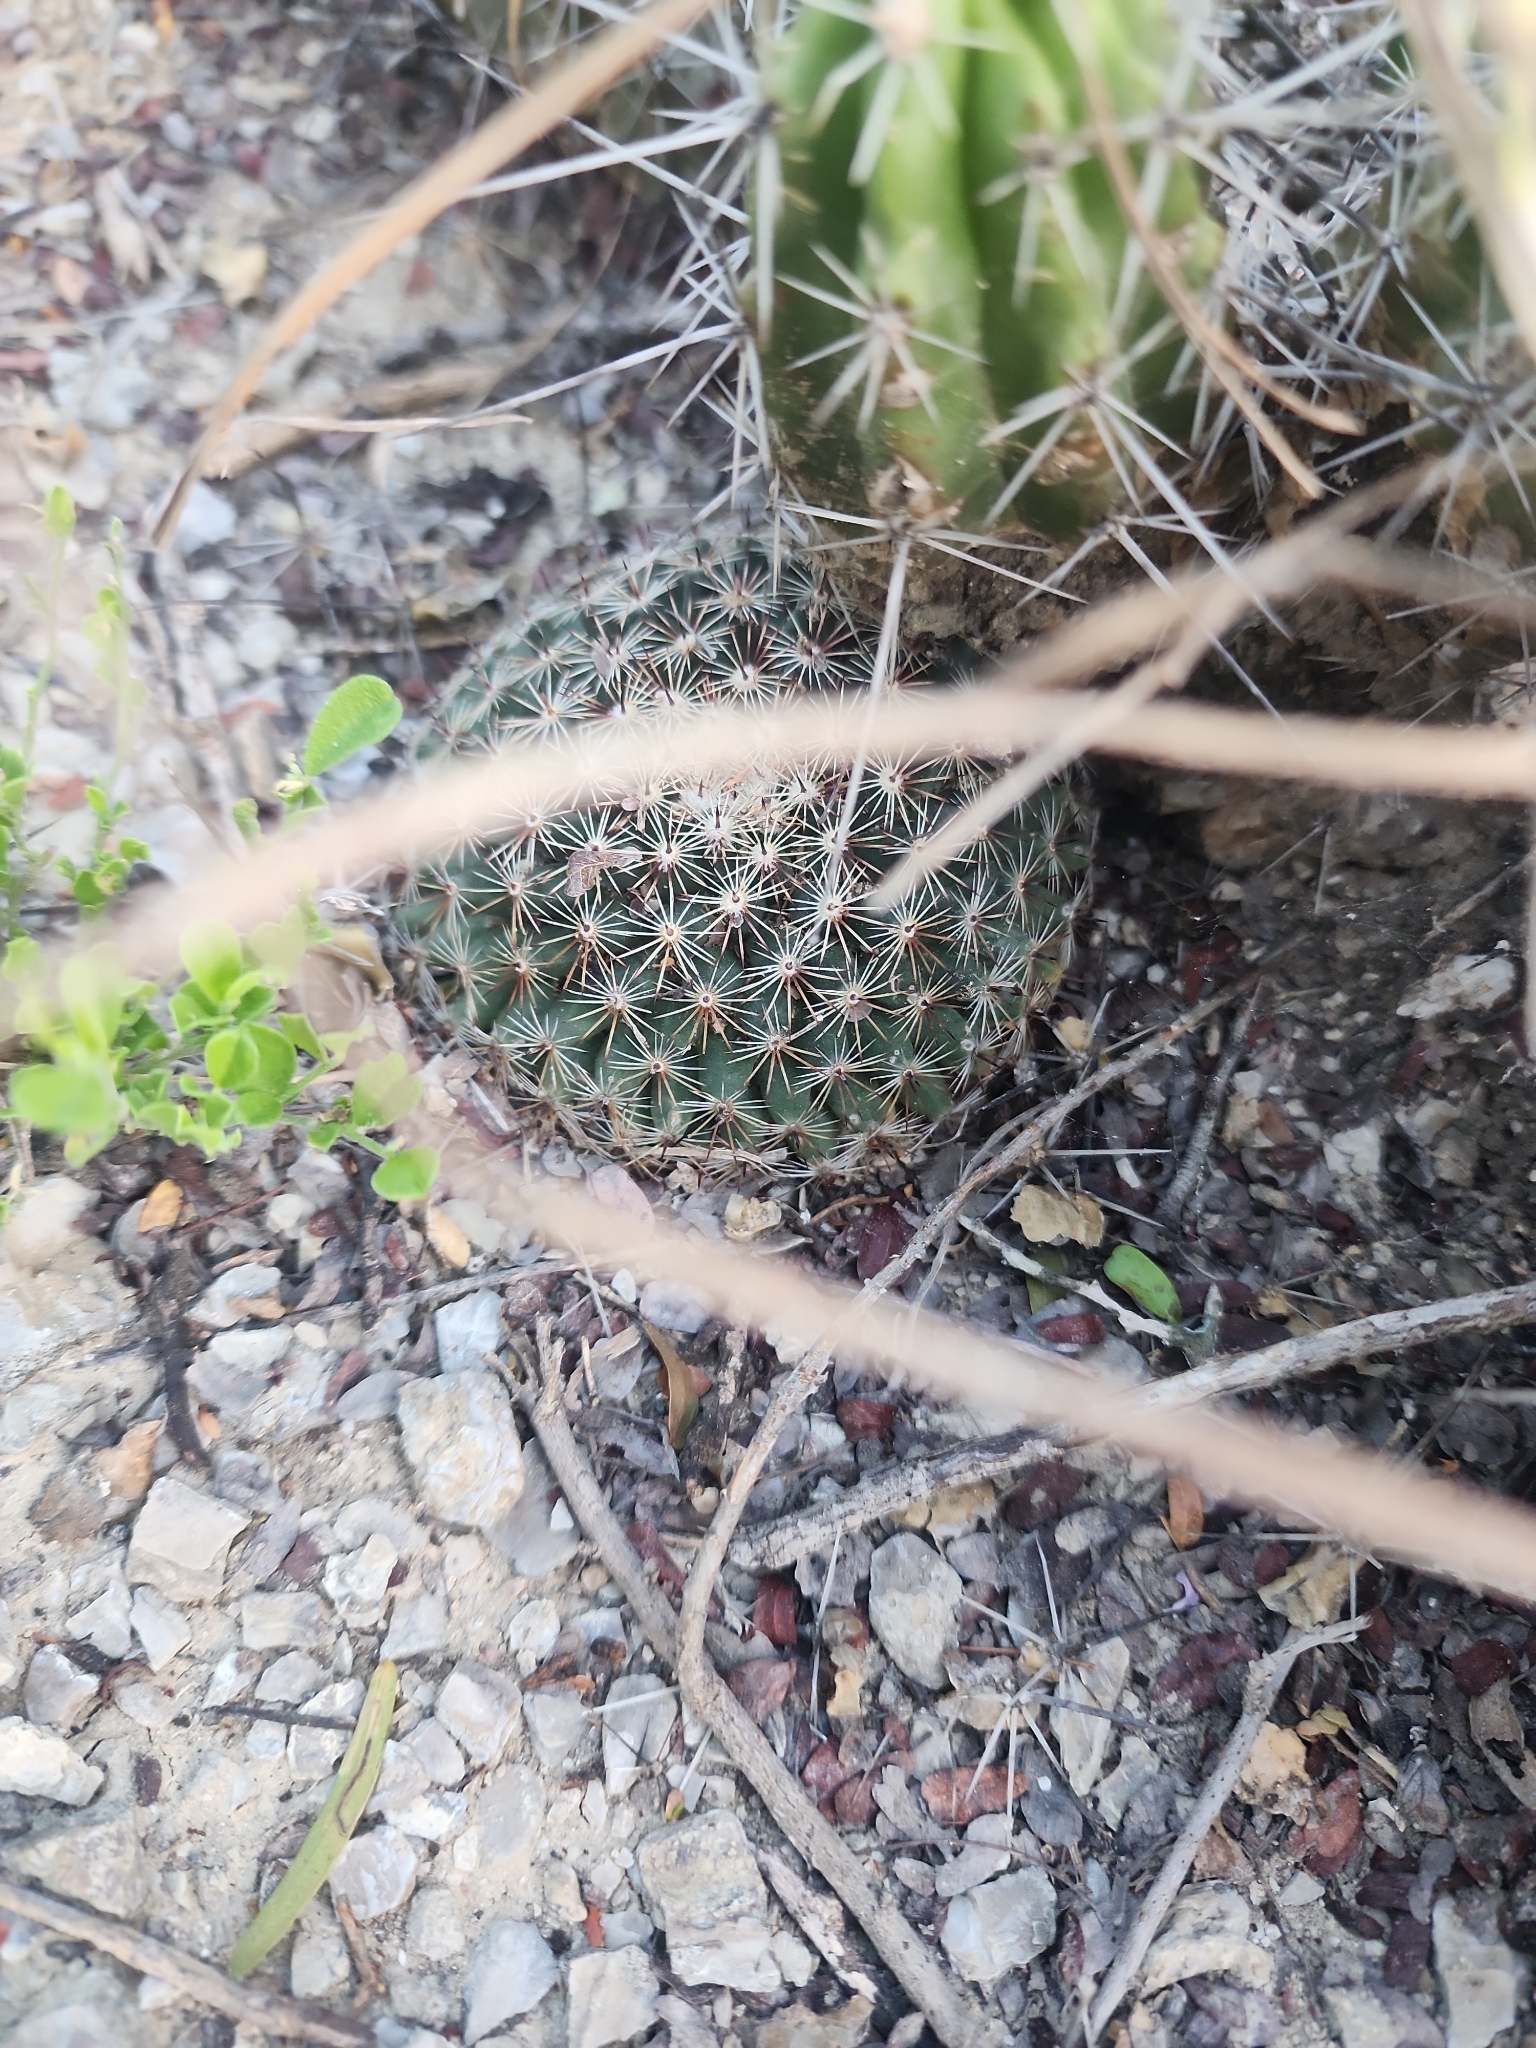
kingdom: Plantae
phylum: Tracheophyta
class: Magnoliopsida
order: Caryophyllales
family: Cactaceae
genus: Mammillaria
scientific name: Mammillaria heyderi
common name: Little nipple cactus
